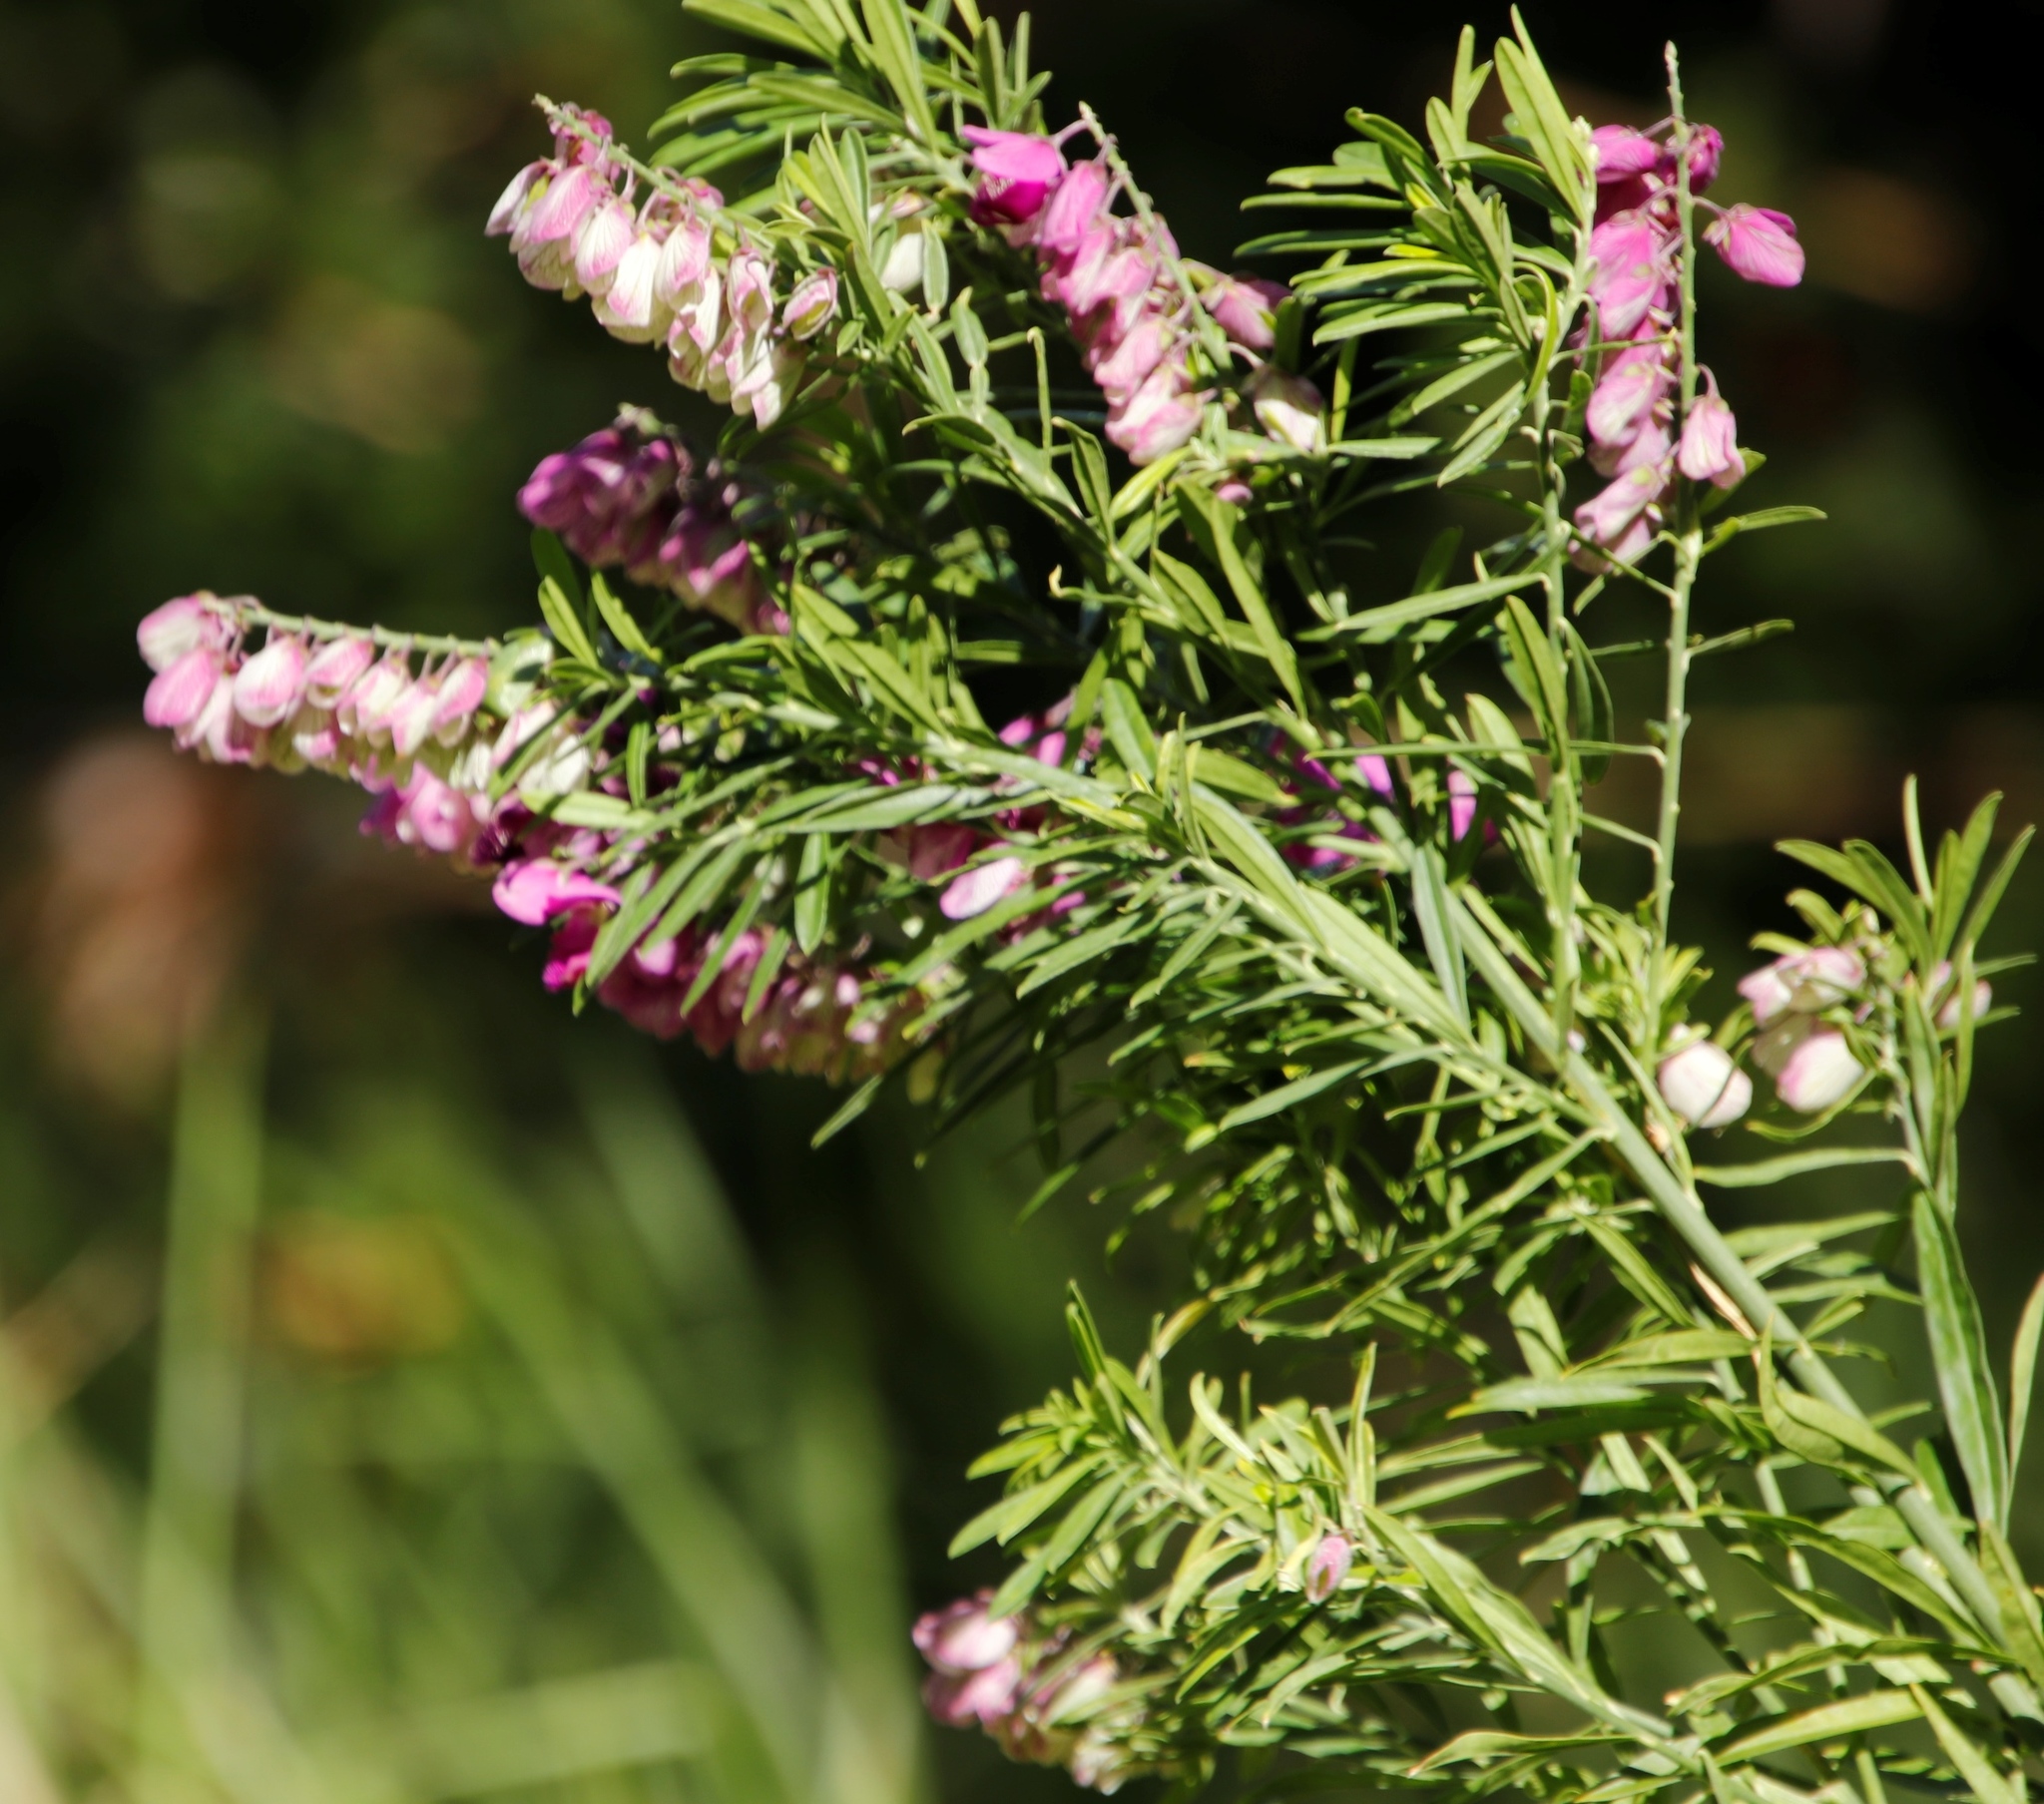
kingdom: Plantae
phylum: Tracheophyta
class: Magnoliopsida
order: Fabales
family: Polygalaceae
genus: Polygala
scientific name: Polygala virgata
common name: Milkwort
